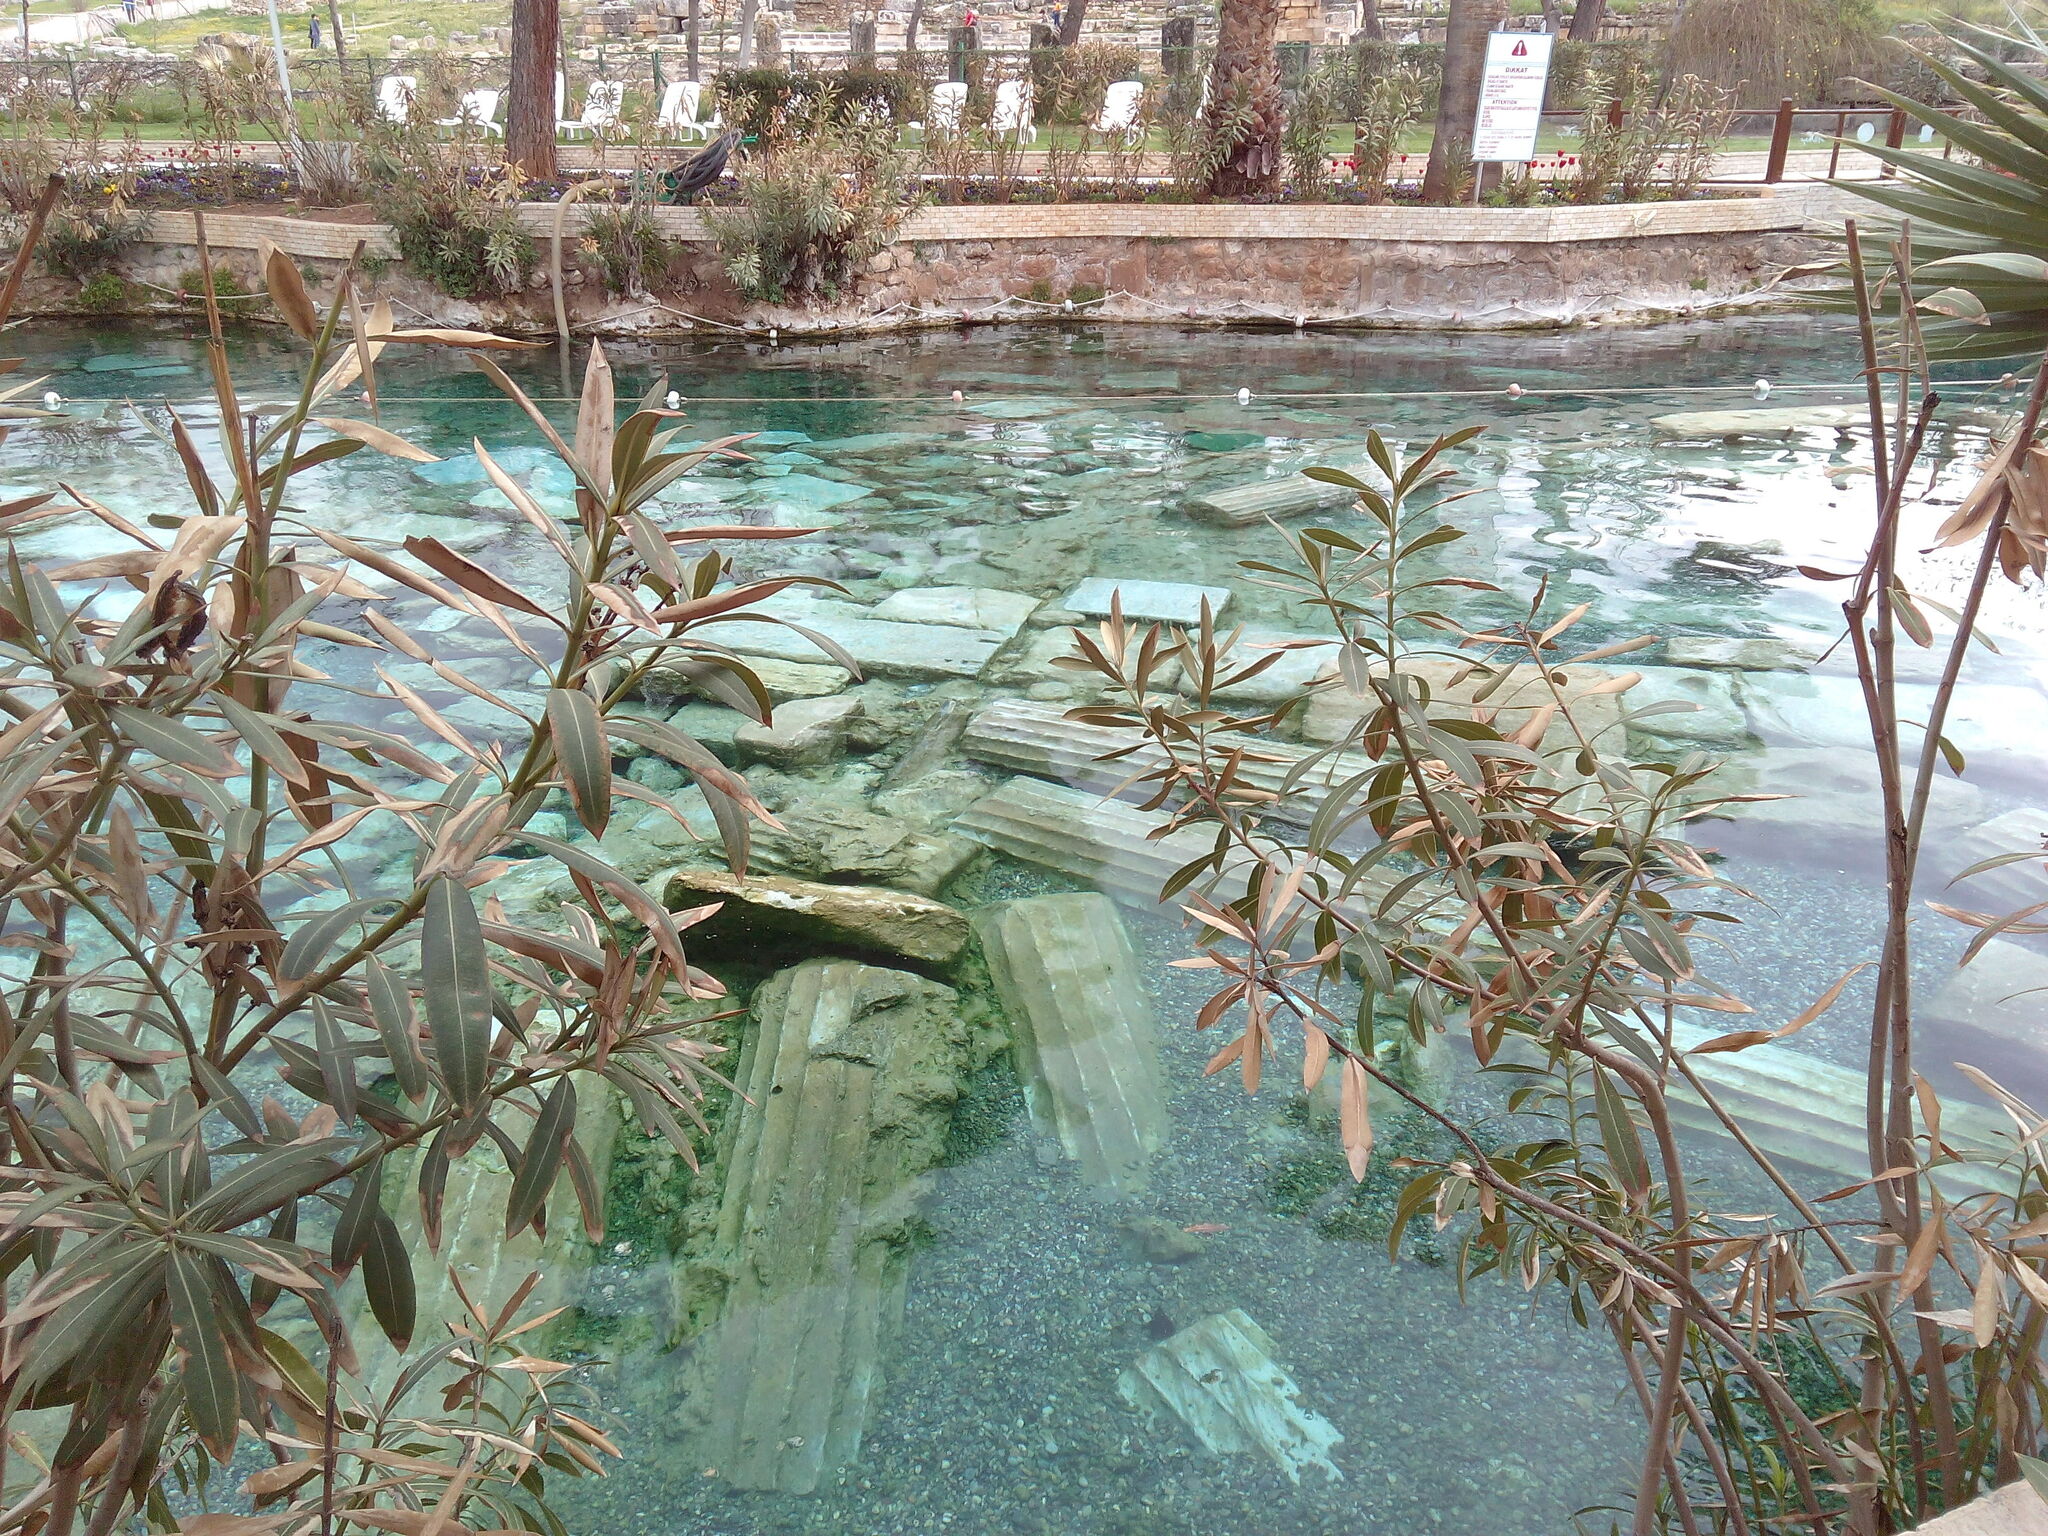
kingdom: Plantae
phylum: Tracheophyta
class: Magnoliopsida
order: Gentianales
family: Apocynaceae
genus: Nerium
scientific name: Nerium oleander
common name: Oleander
